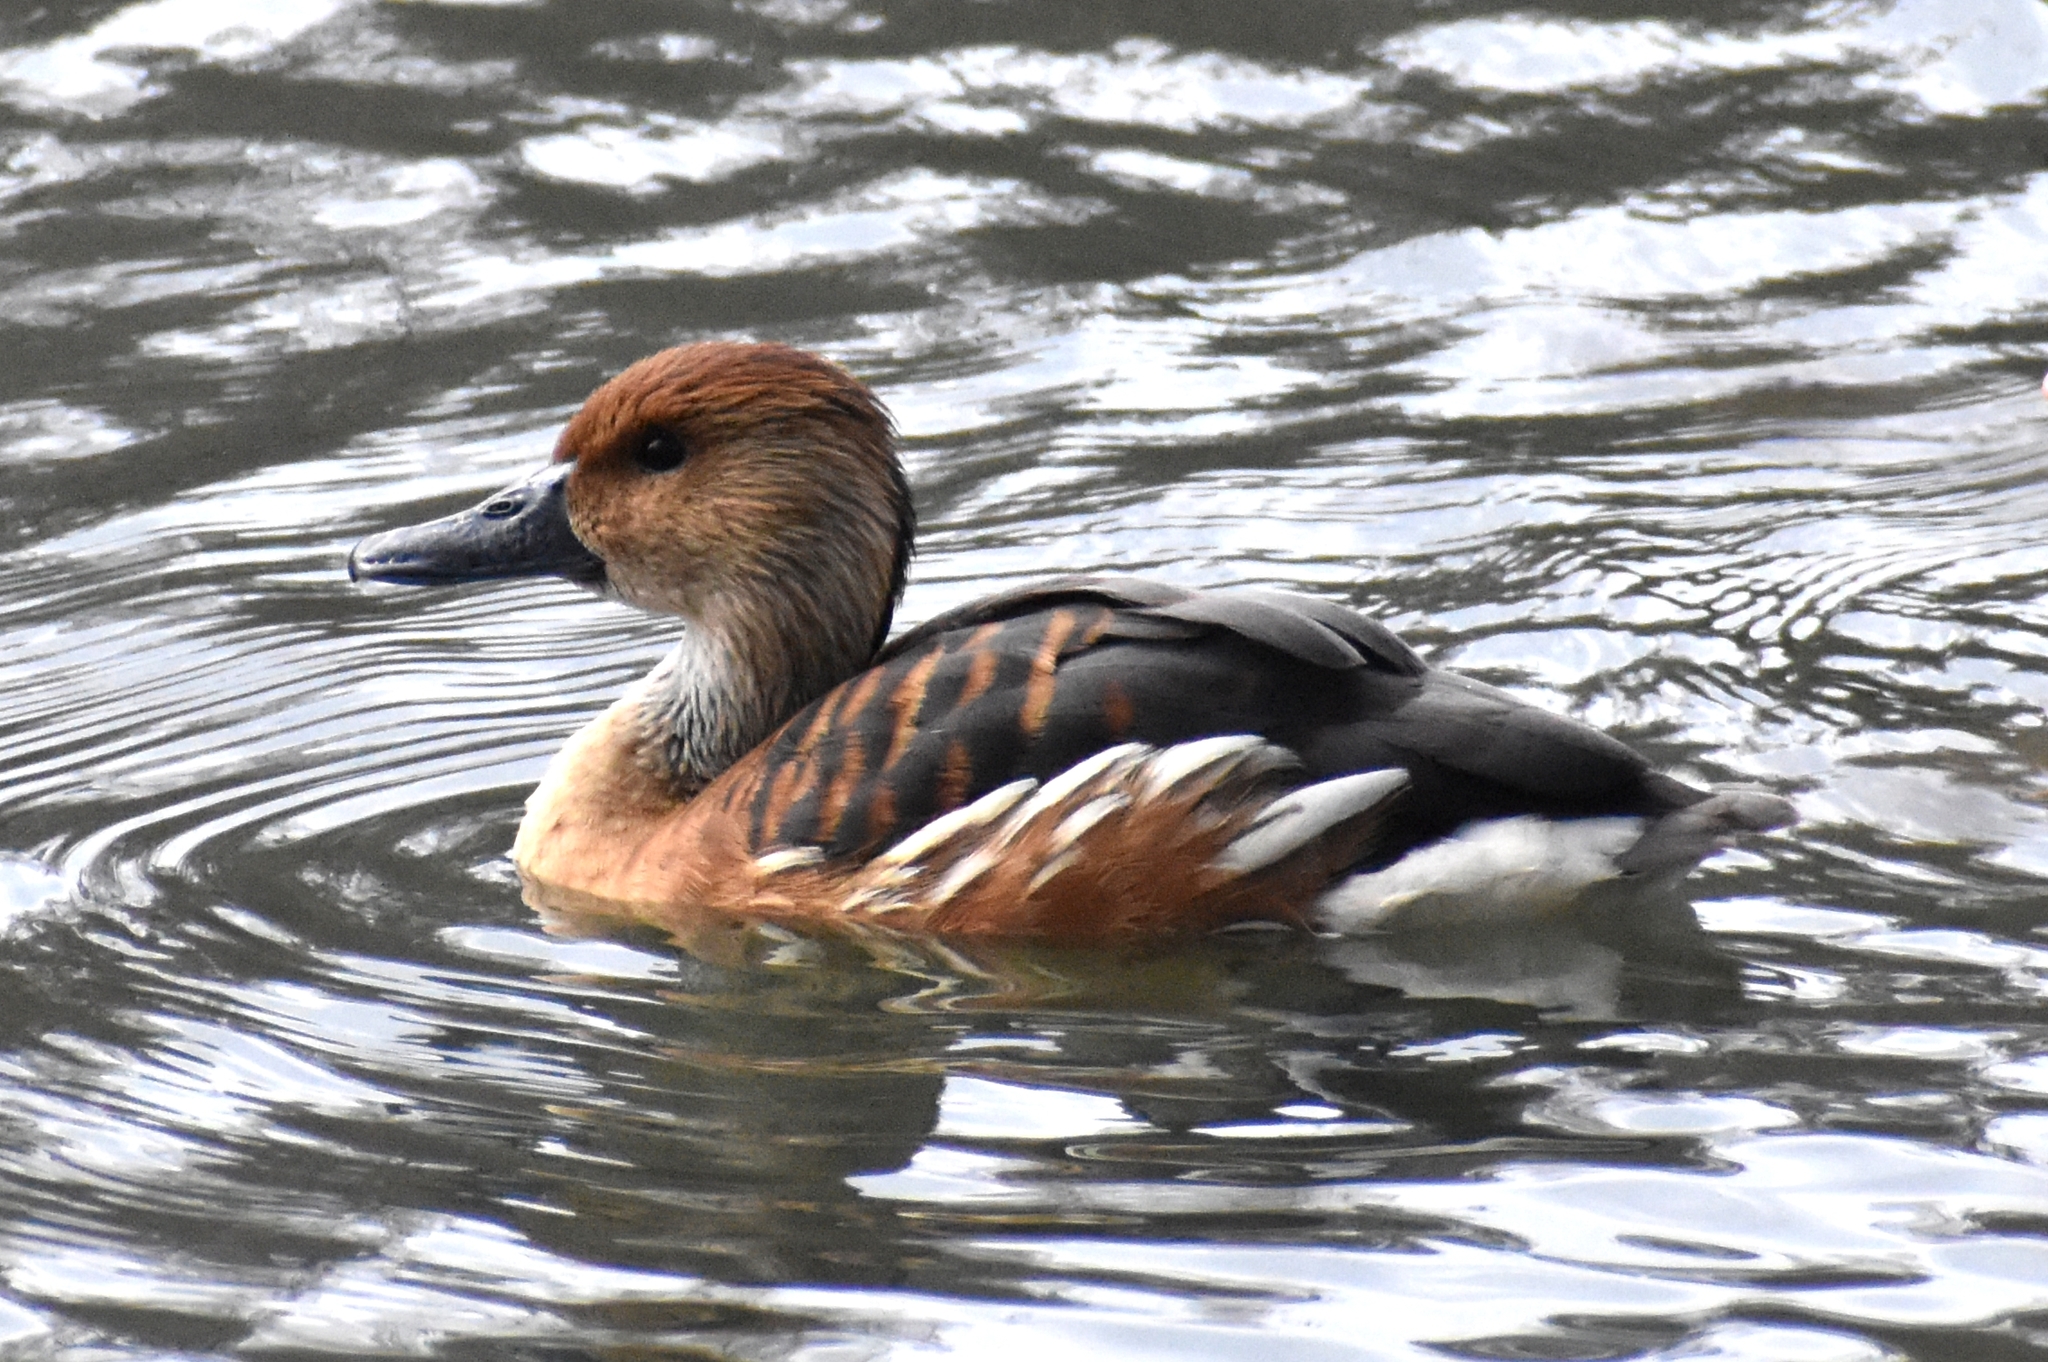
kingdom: Animalia
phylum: Chordata
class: Aves
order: Anseriformes
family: Anatidae
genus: Dendrocygna
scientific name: Dendrocygna bicolor
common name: Fulvous whistling duck
